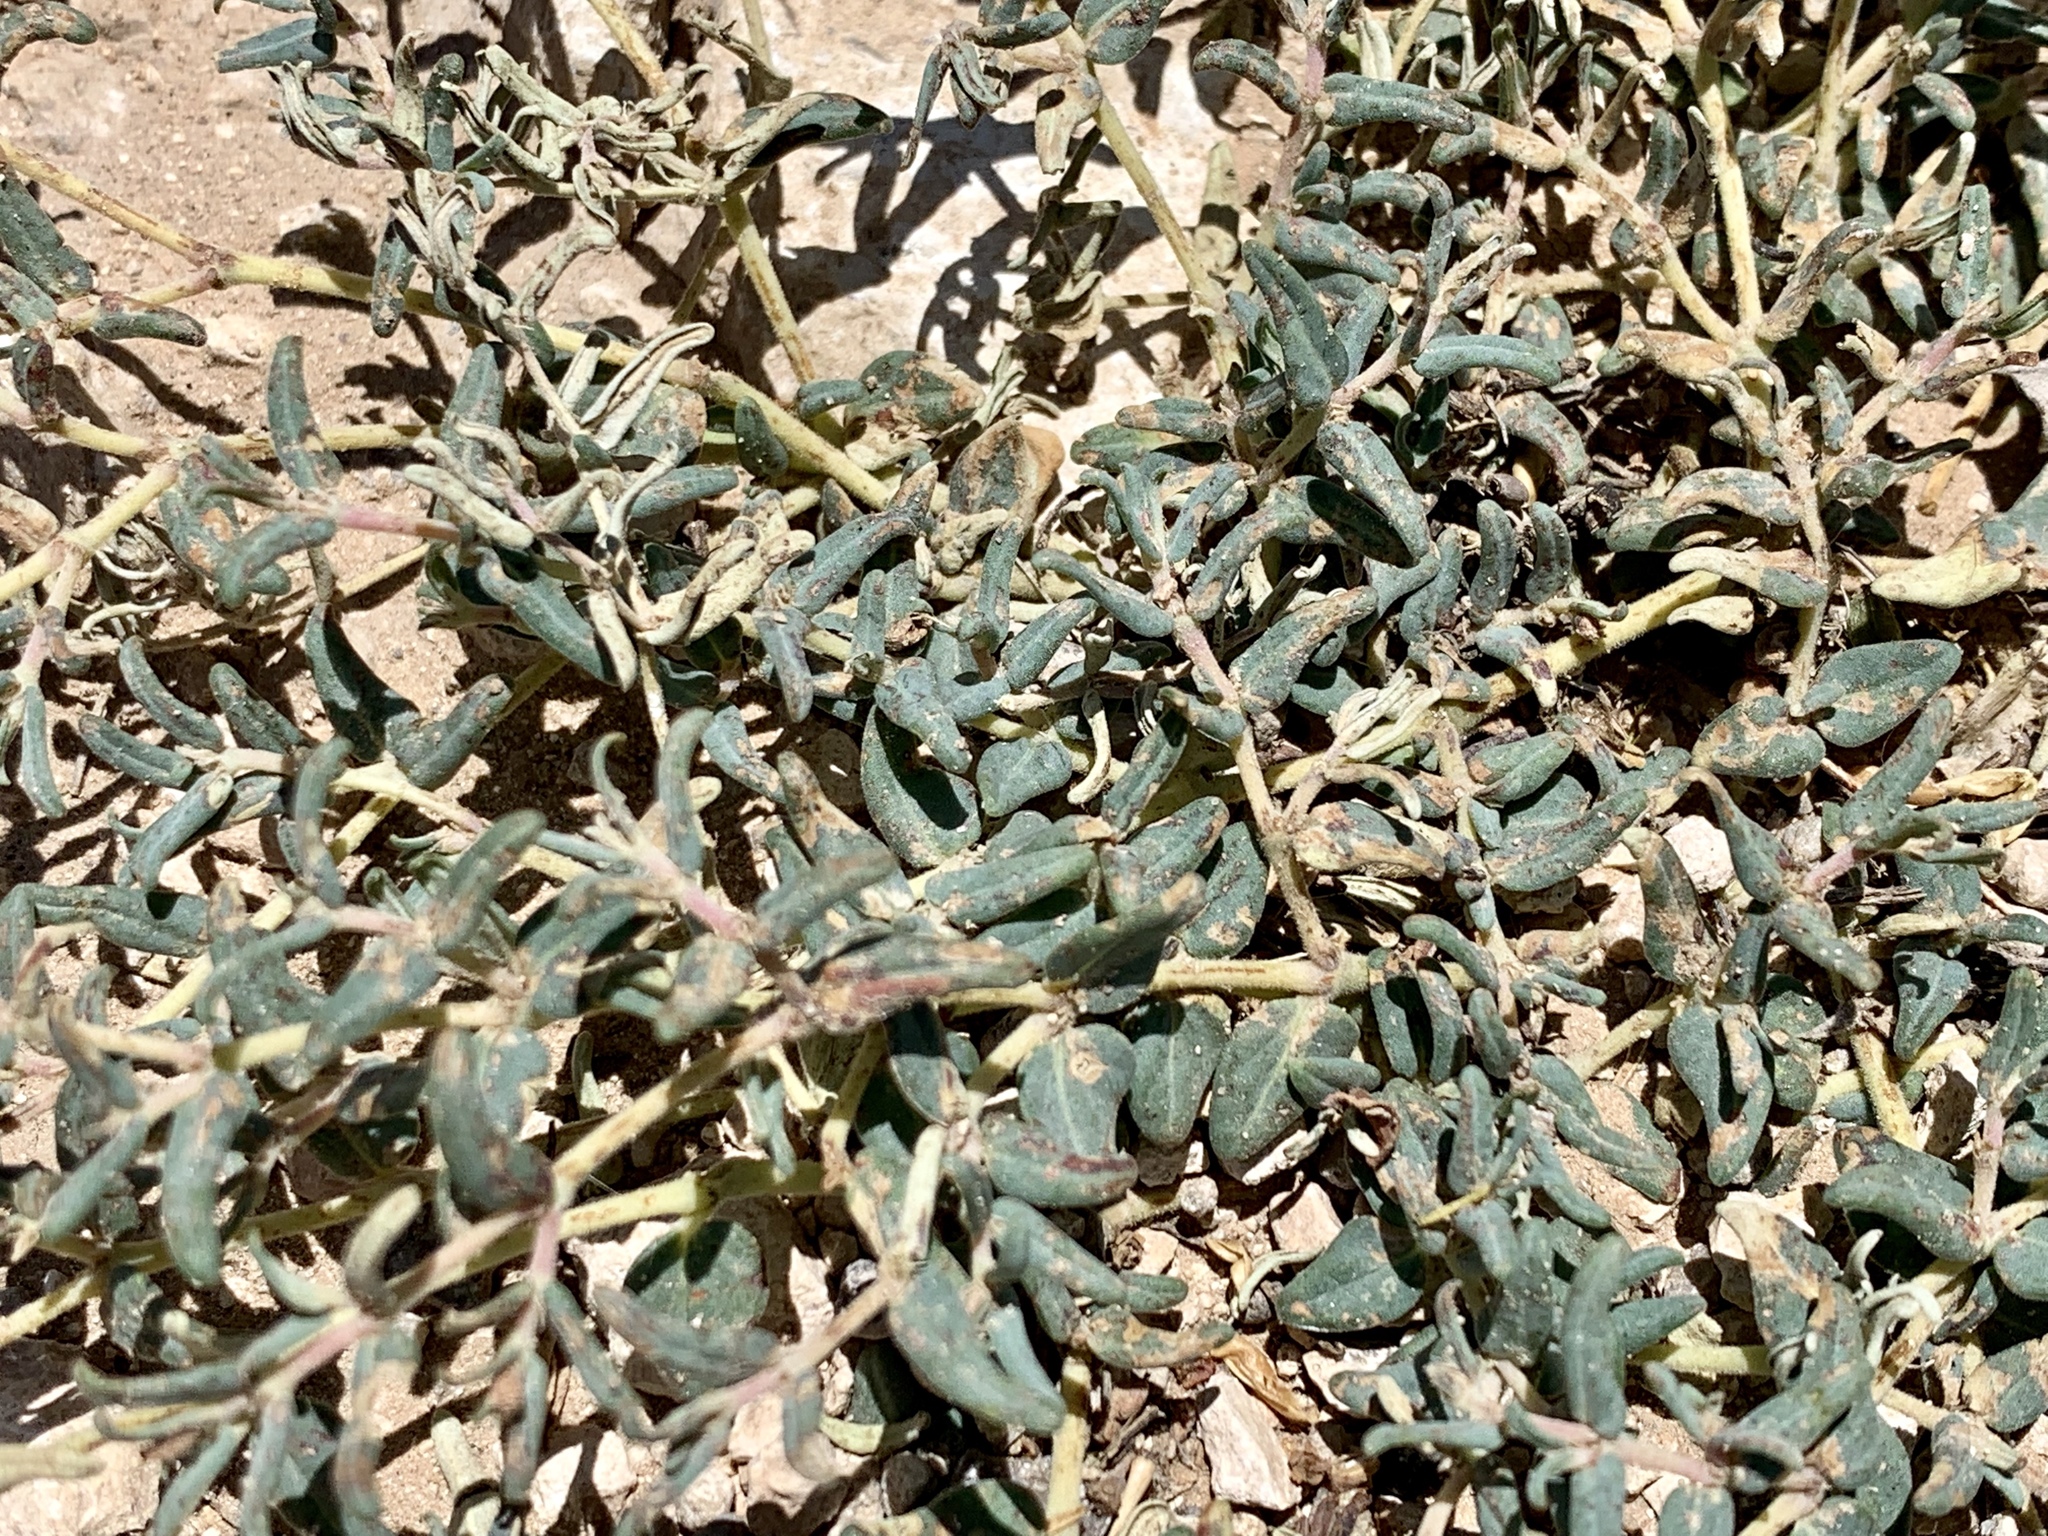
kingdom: Plantae
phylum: Tracheophyta
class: Magnoliopsida
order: Malpighiales
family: Euphorbiaceae
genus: Euphorbia
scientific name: Euphorbia lata
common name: Hoary euphorbia
